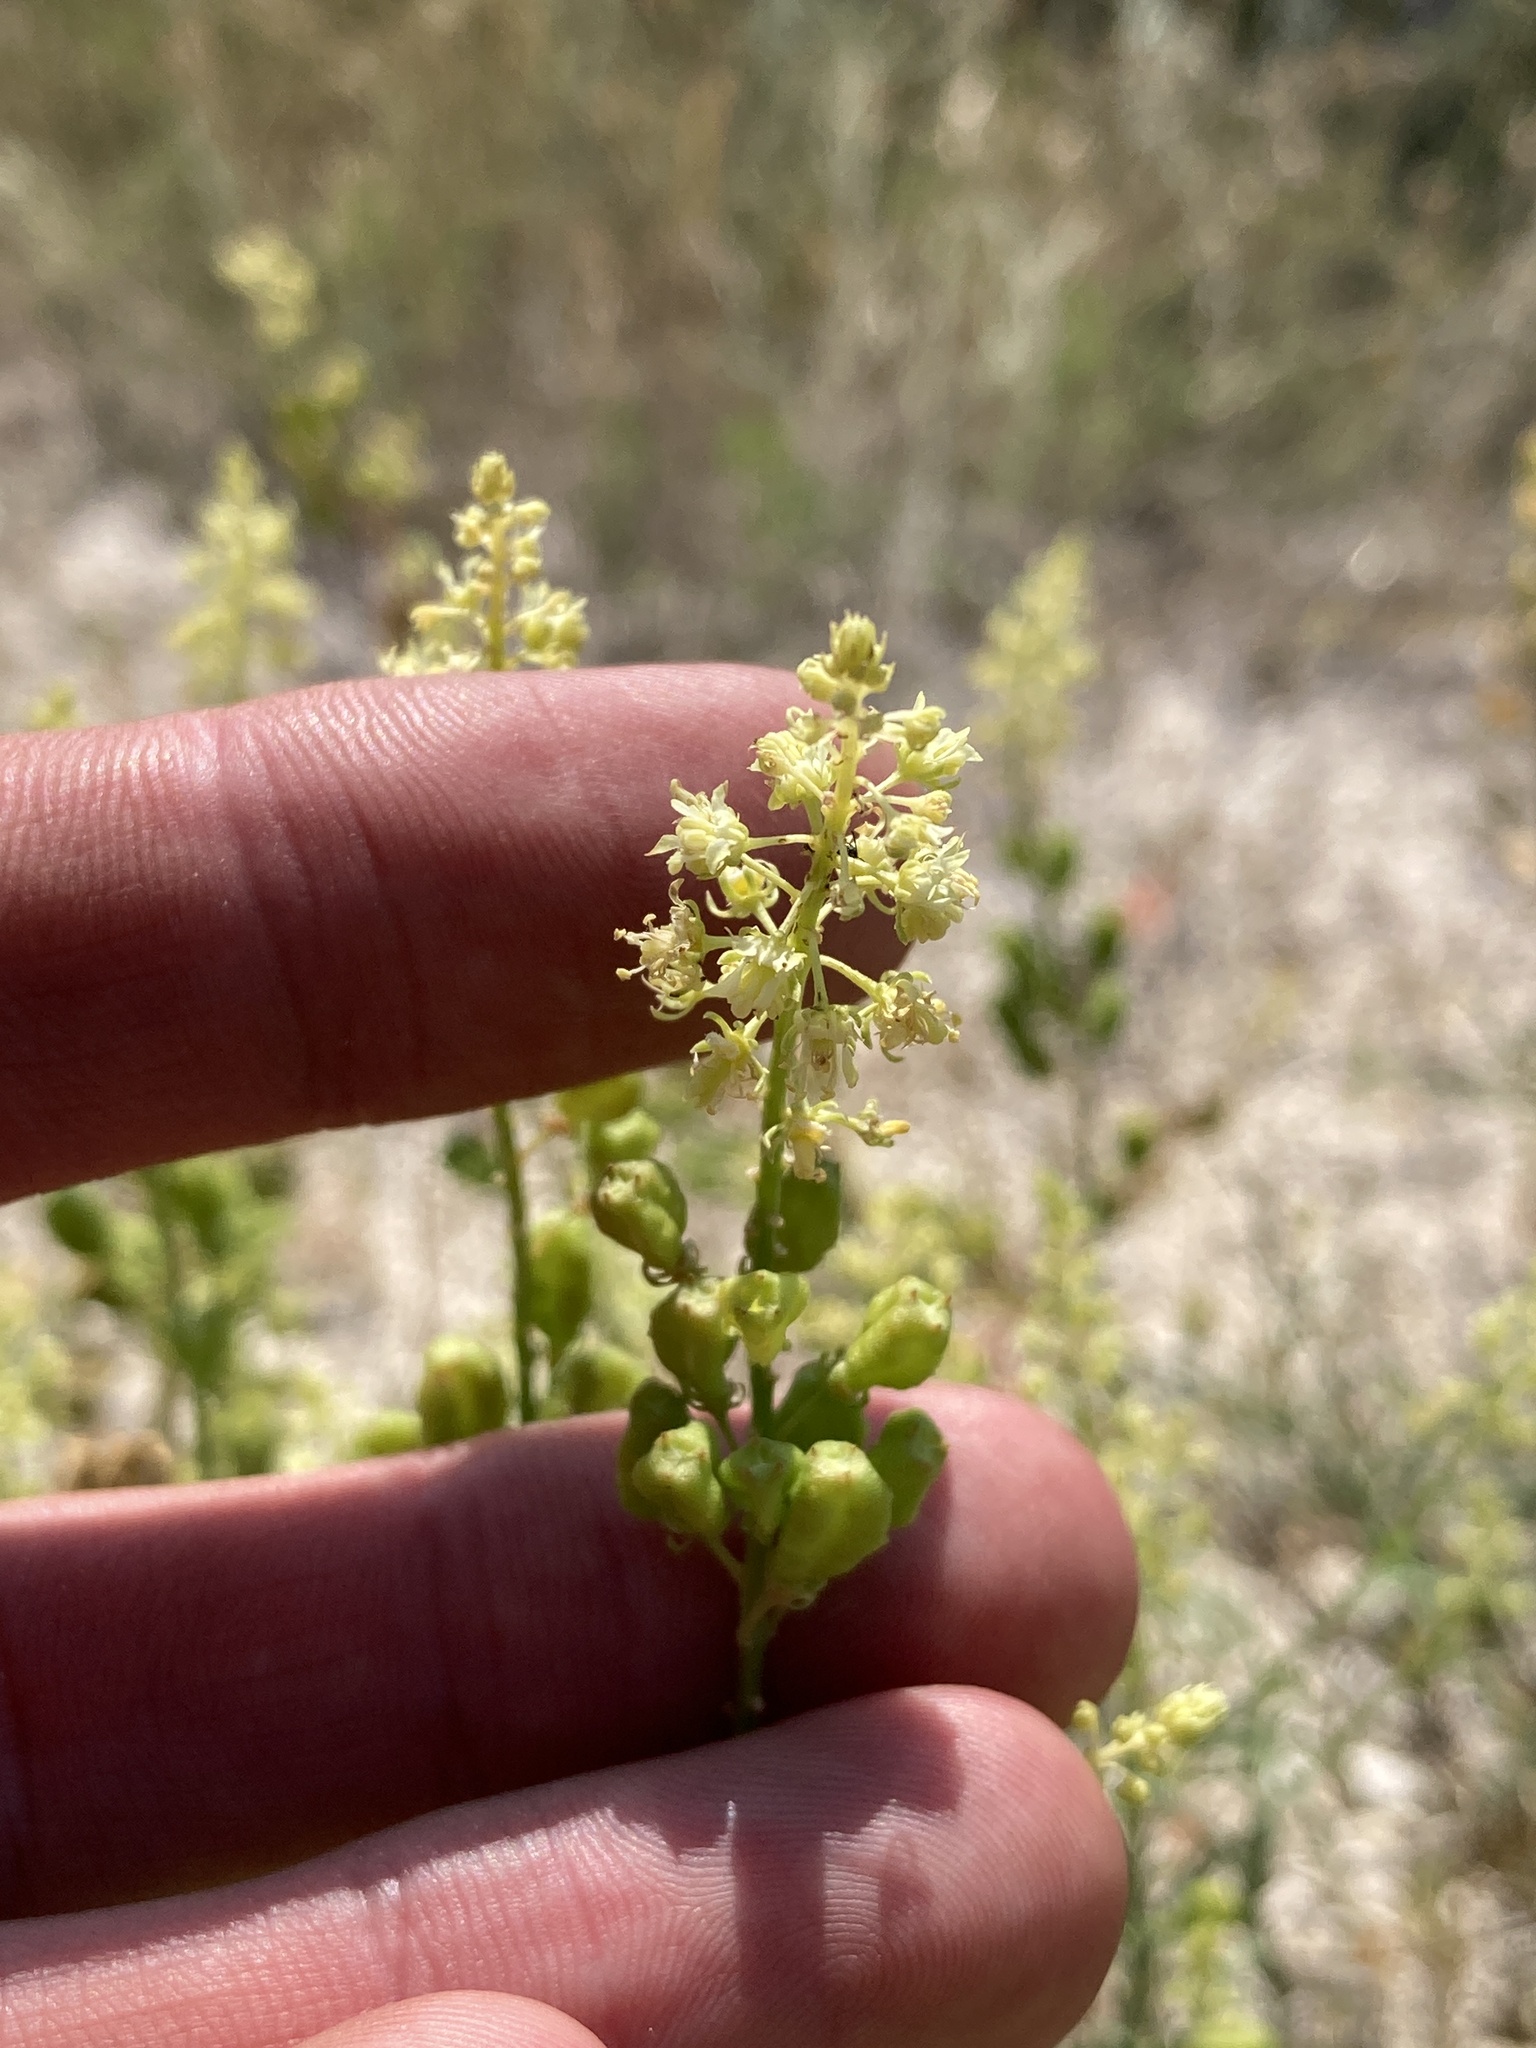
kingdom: Plantae
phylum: Tracheophyta
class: Magnoliopsida
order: Brassicales
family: Resedaceae
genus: Reseda
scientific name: Reseda lutea
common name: Wild mignonette
